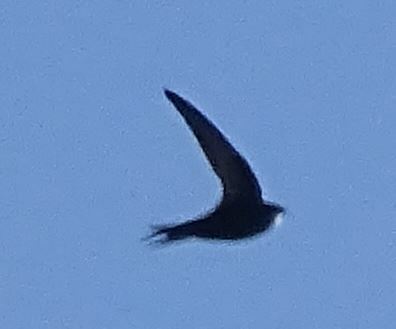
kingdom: Animalia
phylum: Chordata
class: Aves
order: Apodiformes
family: Apodidae
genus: Apus
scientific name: Apus apus
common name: Common swift
